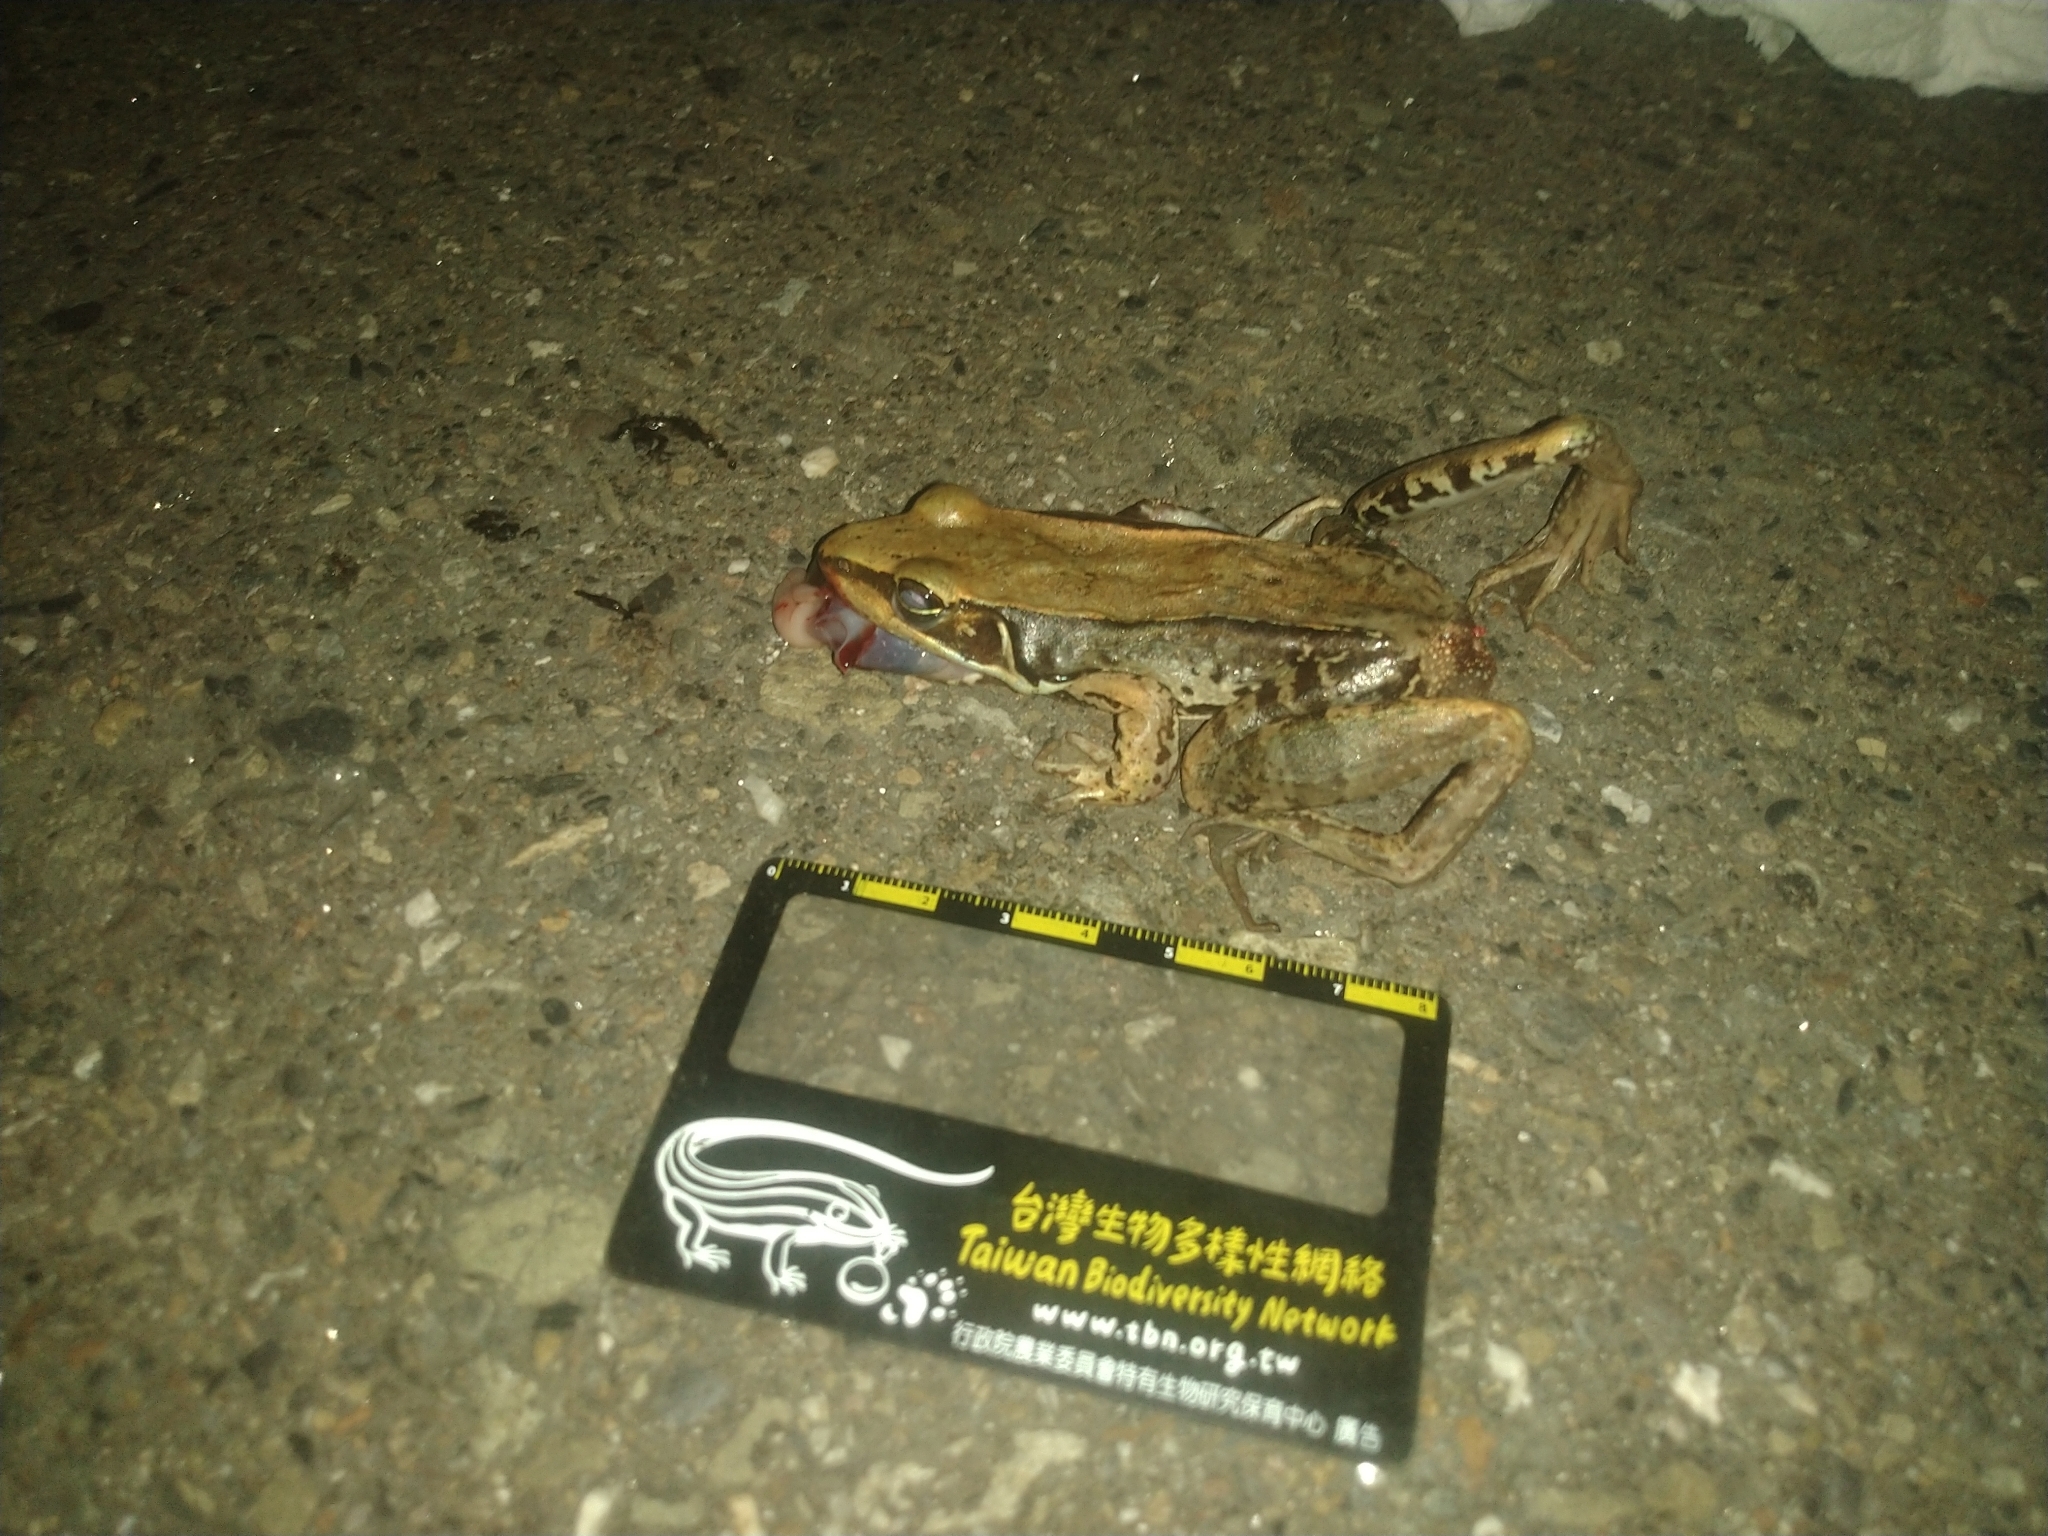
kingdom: Animalia
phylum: Chordata
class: Amphibia
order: Anura
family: Ranidae
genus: Sylvirana
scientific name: Sylvirana guentheri
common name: Guenther's amoy frog
